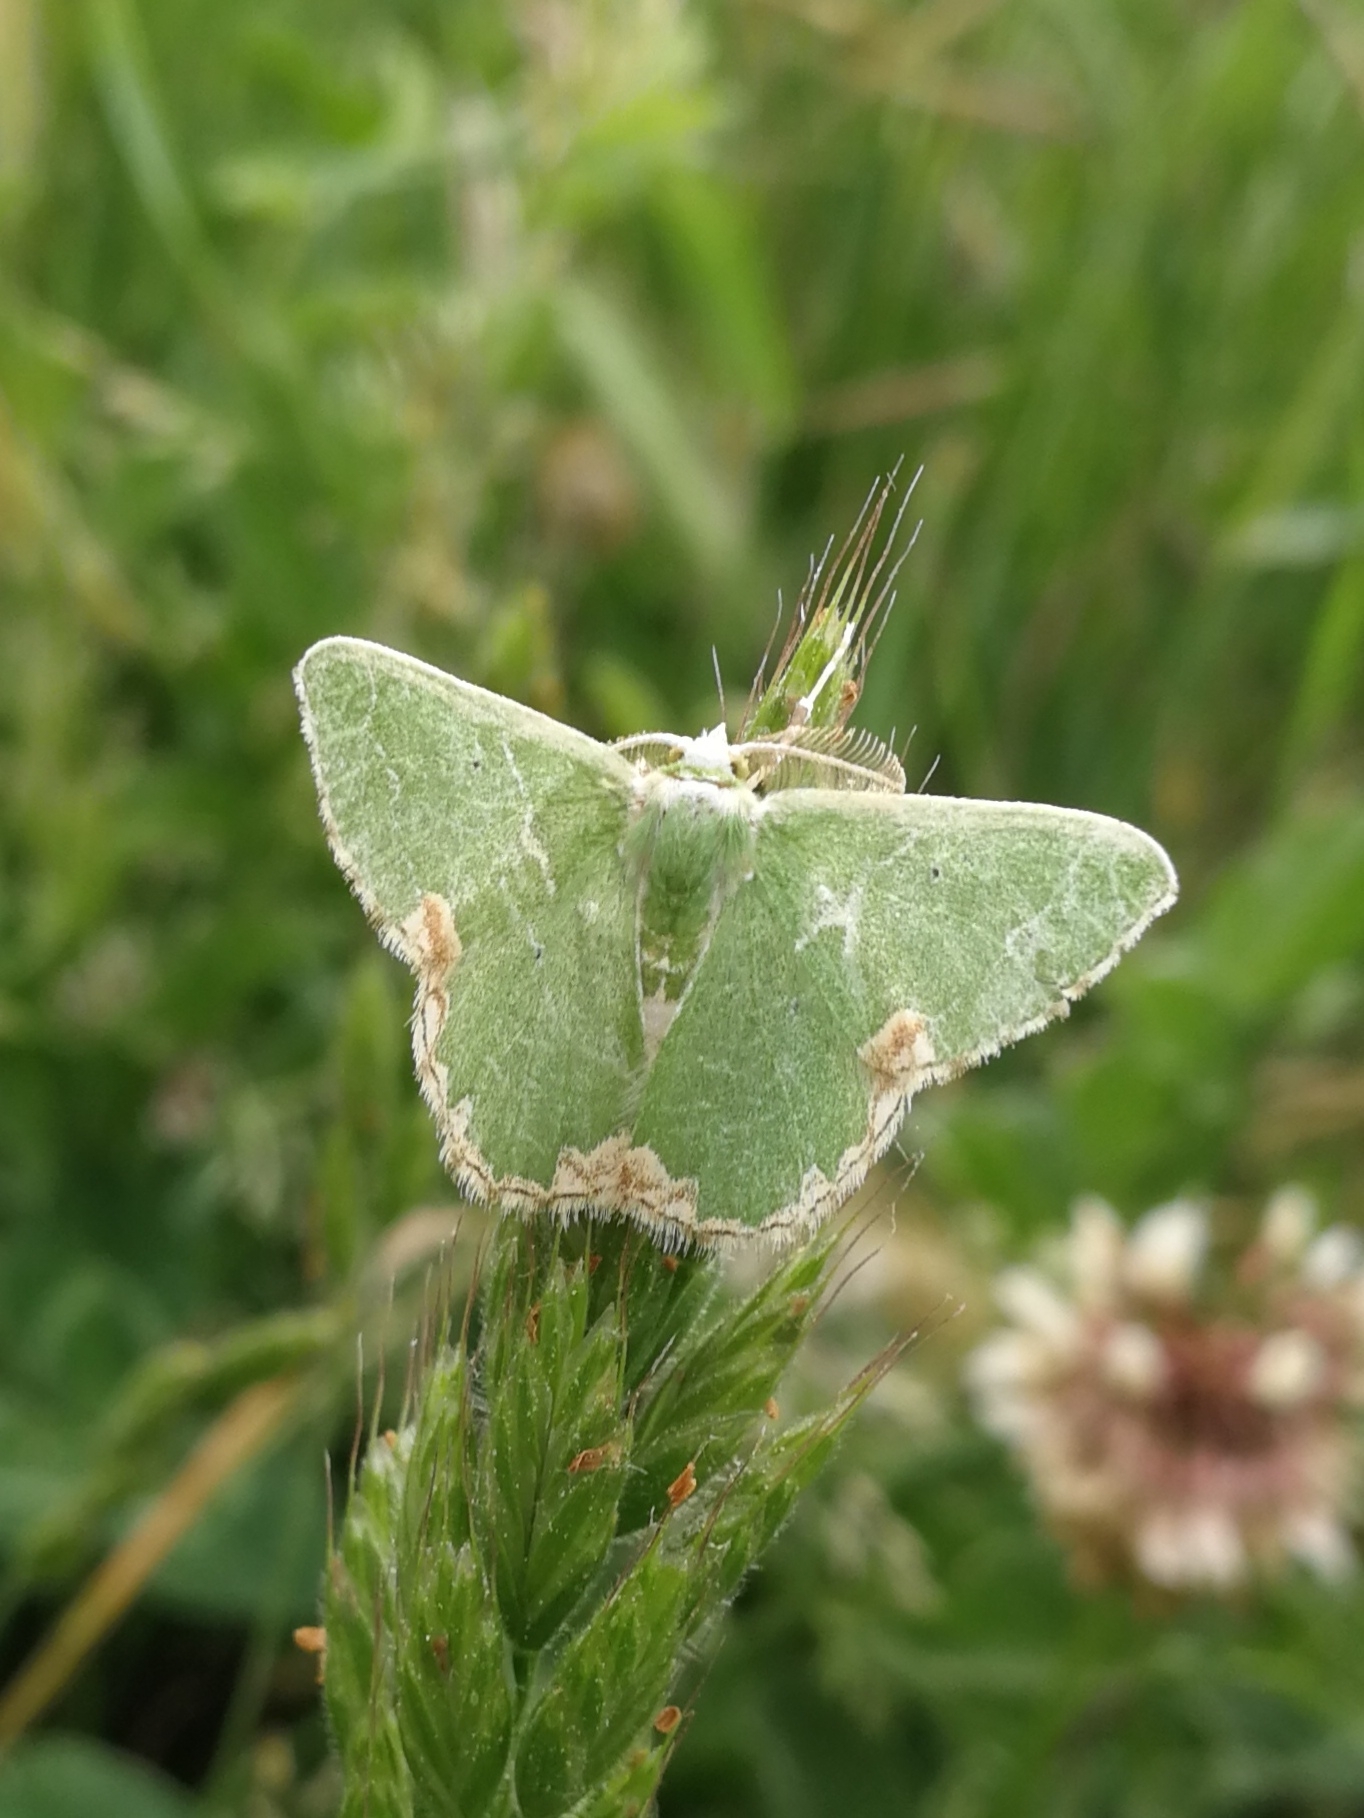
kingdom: Animalia
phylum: Arthropoda
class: Insecta
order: Lepidoptera
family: Geometridae
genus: Comibaena
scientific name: Comibaena bajularia
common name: Blotched emerald
